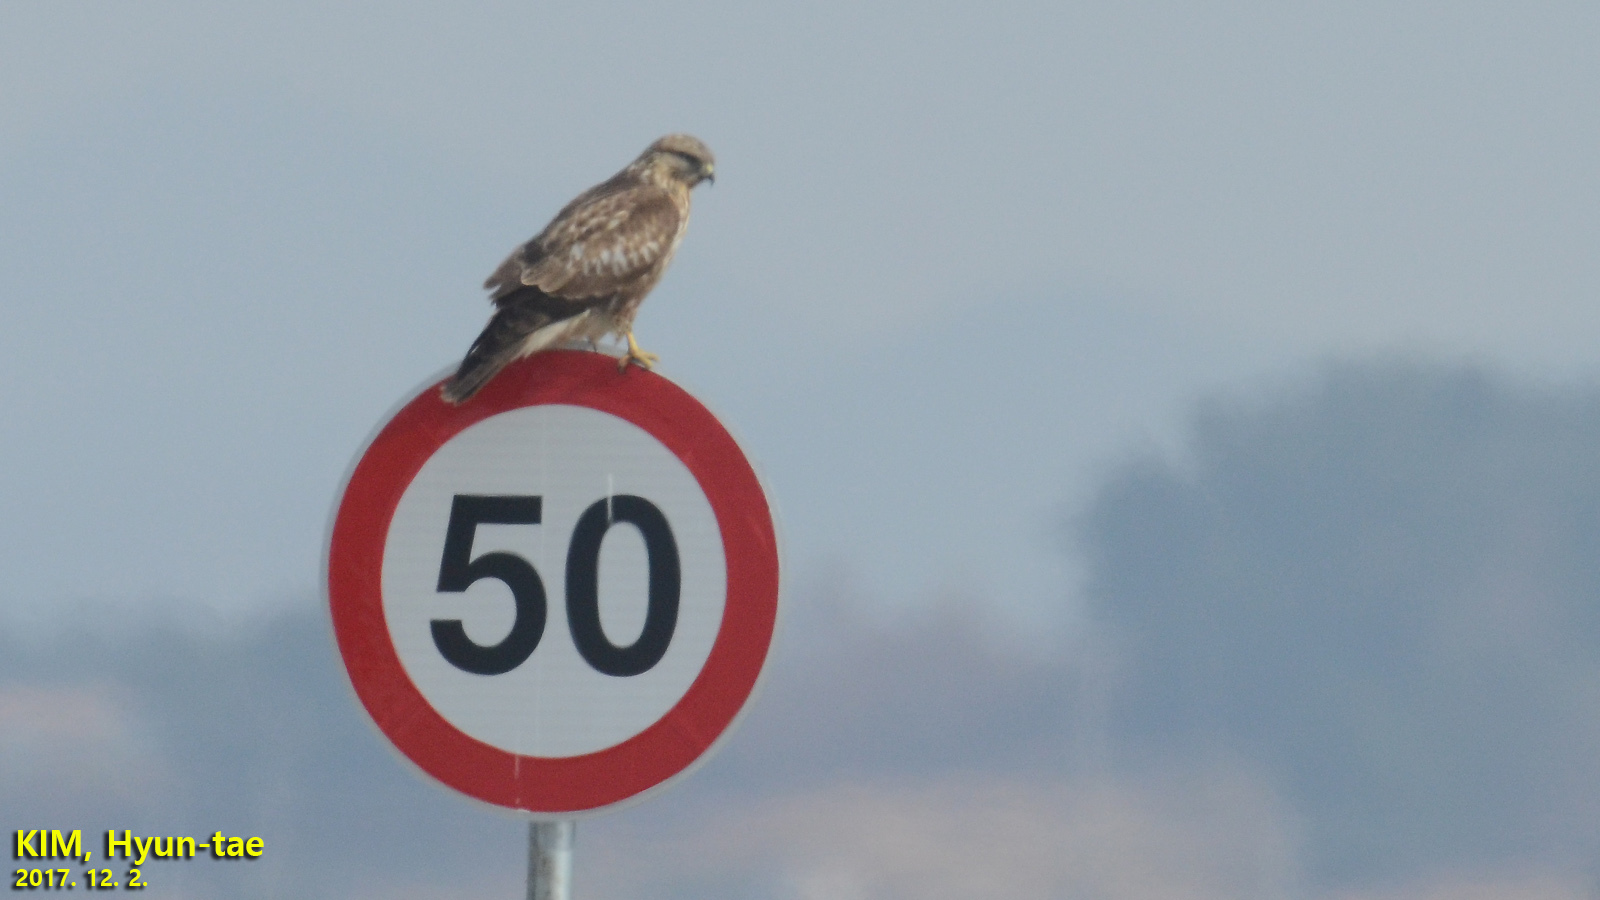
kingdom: Animalia
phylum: Chordata
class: Aves
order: Accipitriformes
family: Accipitridae
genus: Buteo
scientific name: Buteo japonicus
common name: Eastern buzzard
